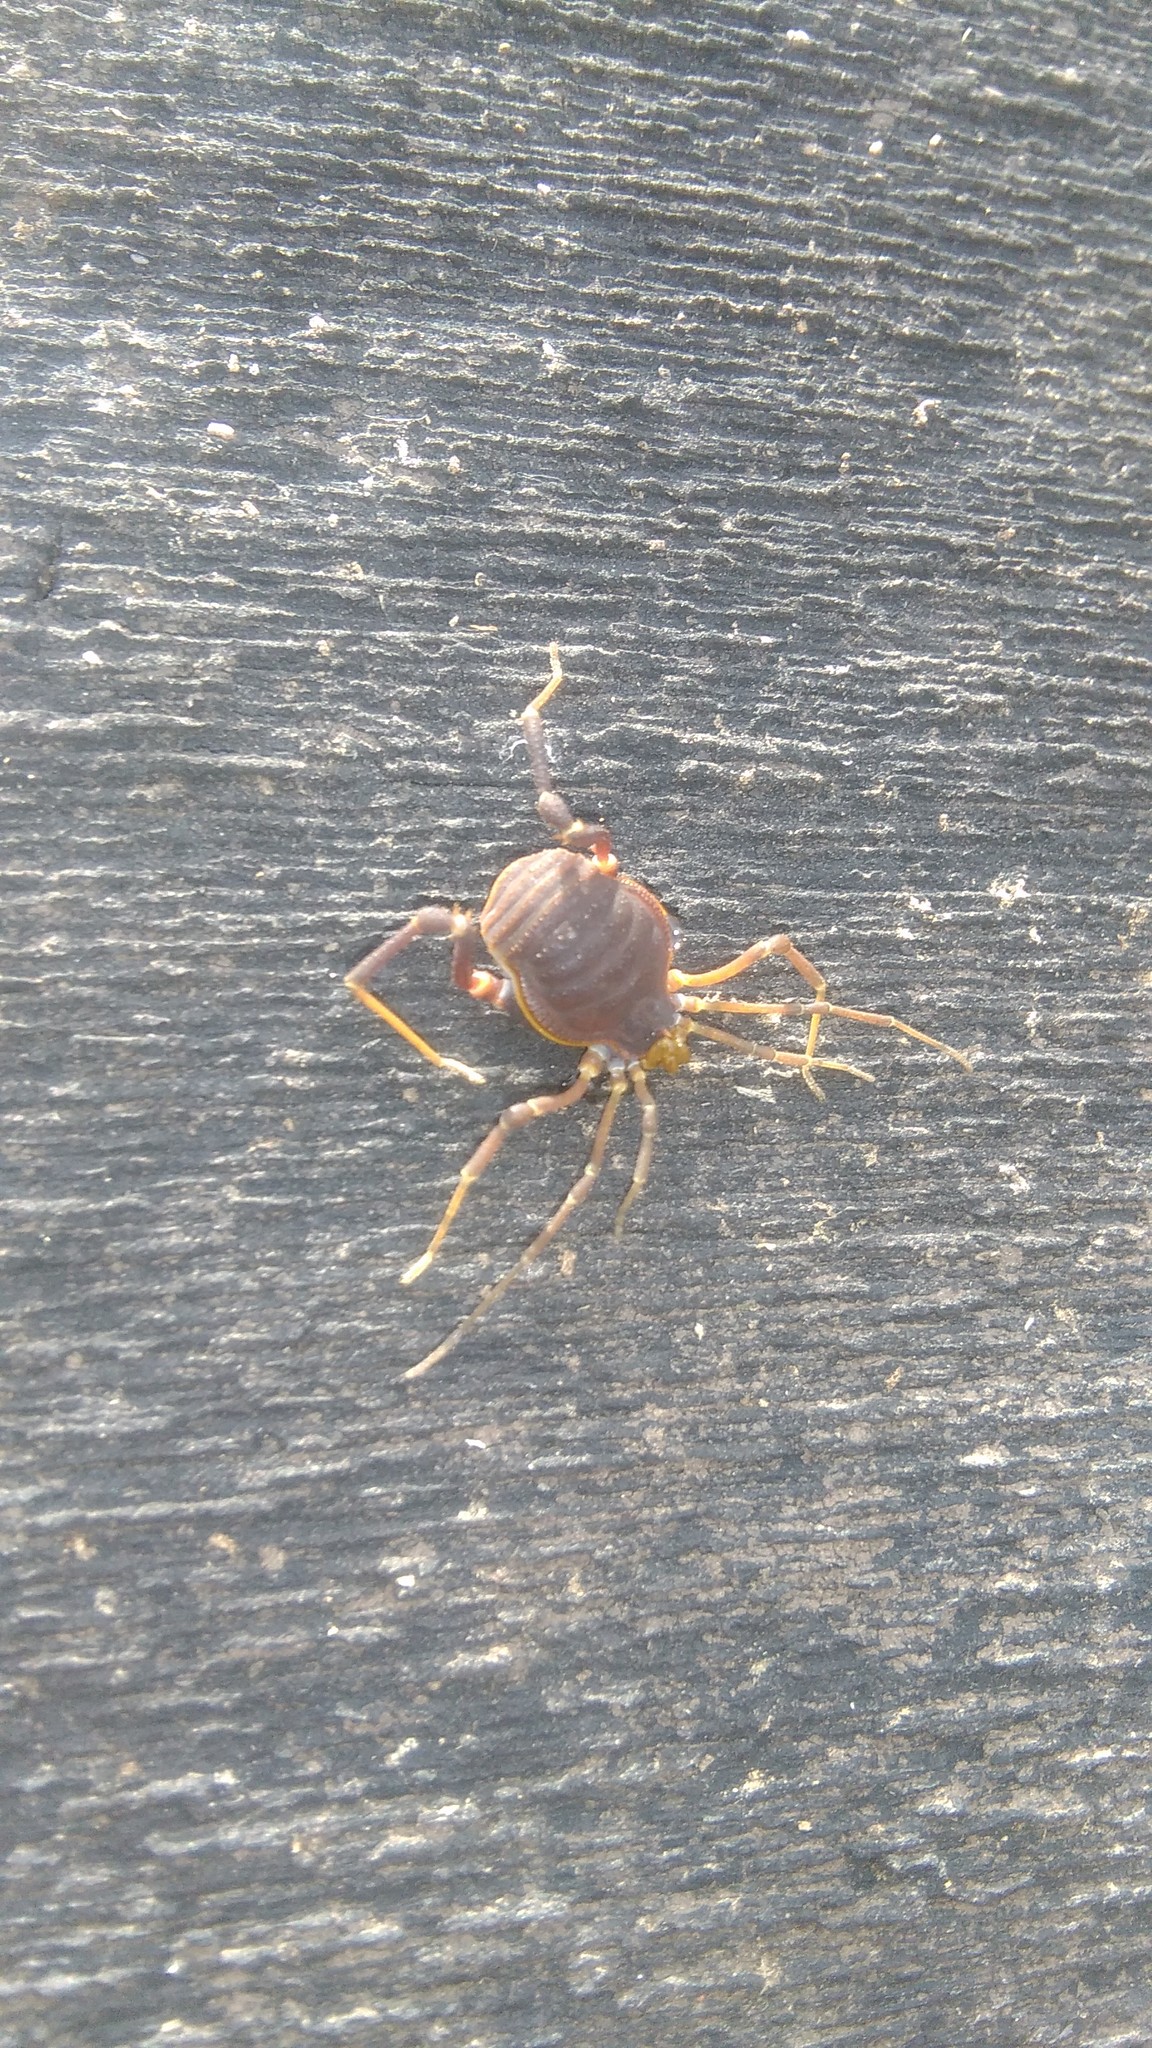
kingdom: Animalia
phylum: Arthropoda
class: Arachnida
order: Opiliones
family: Gonyleptidae
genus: Acanthopachylus
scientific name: Acanthopachylus robustus
